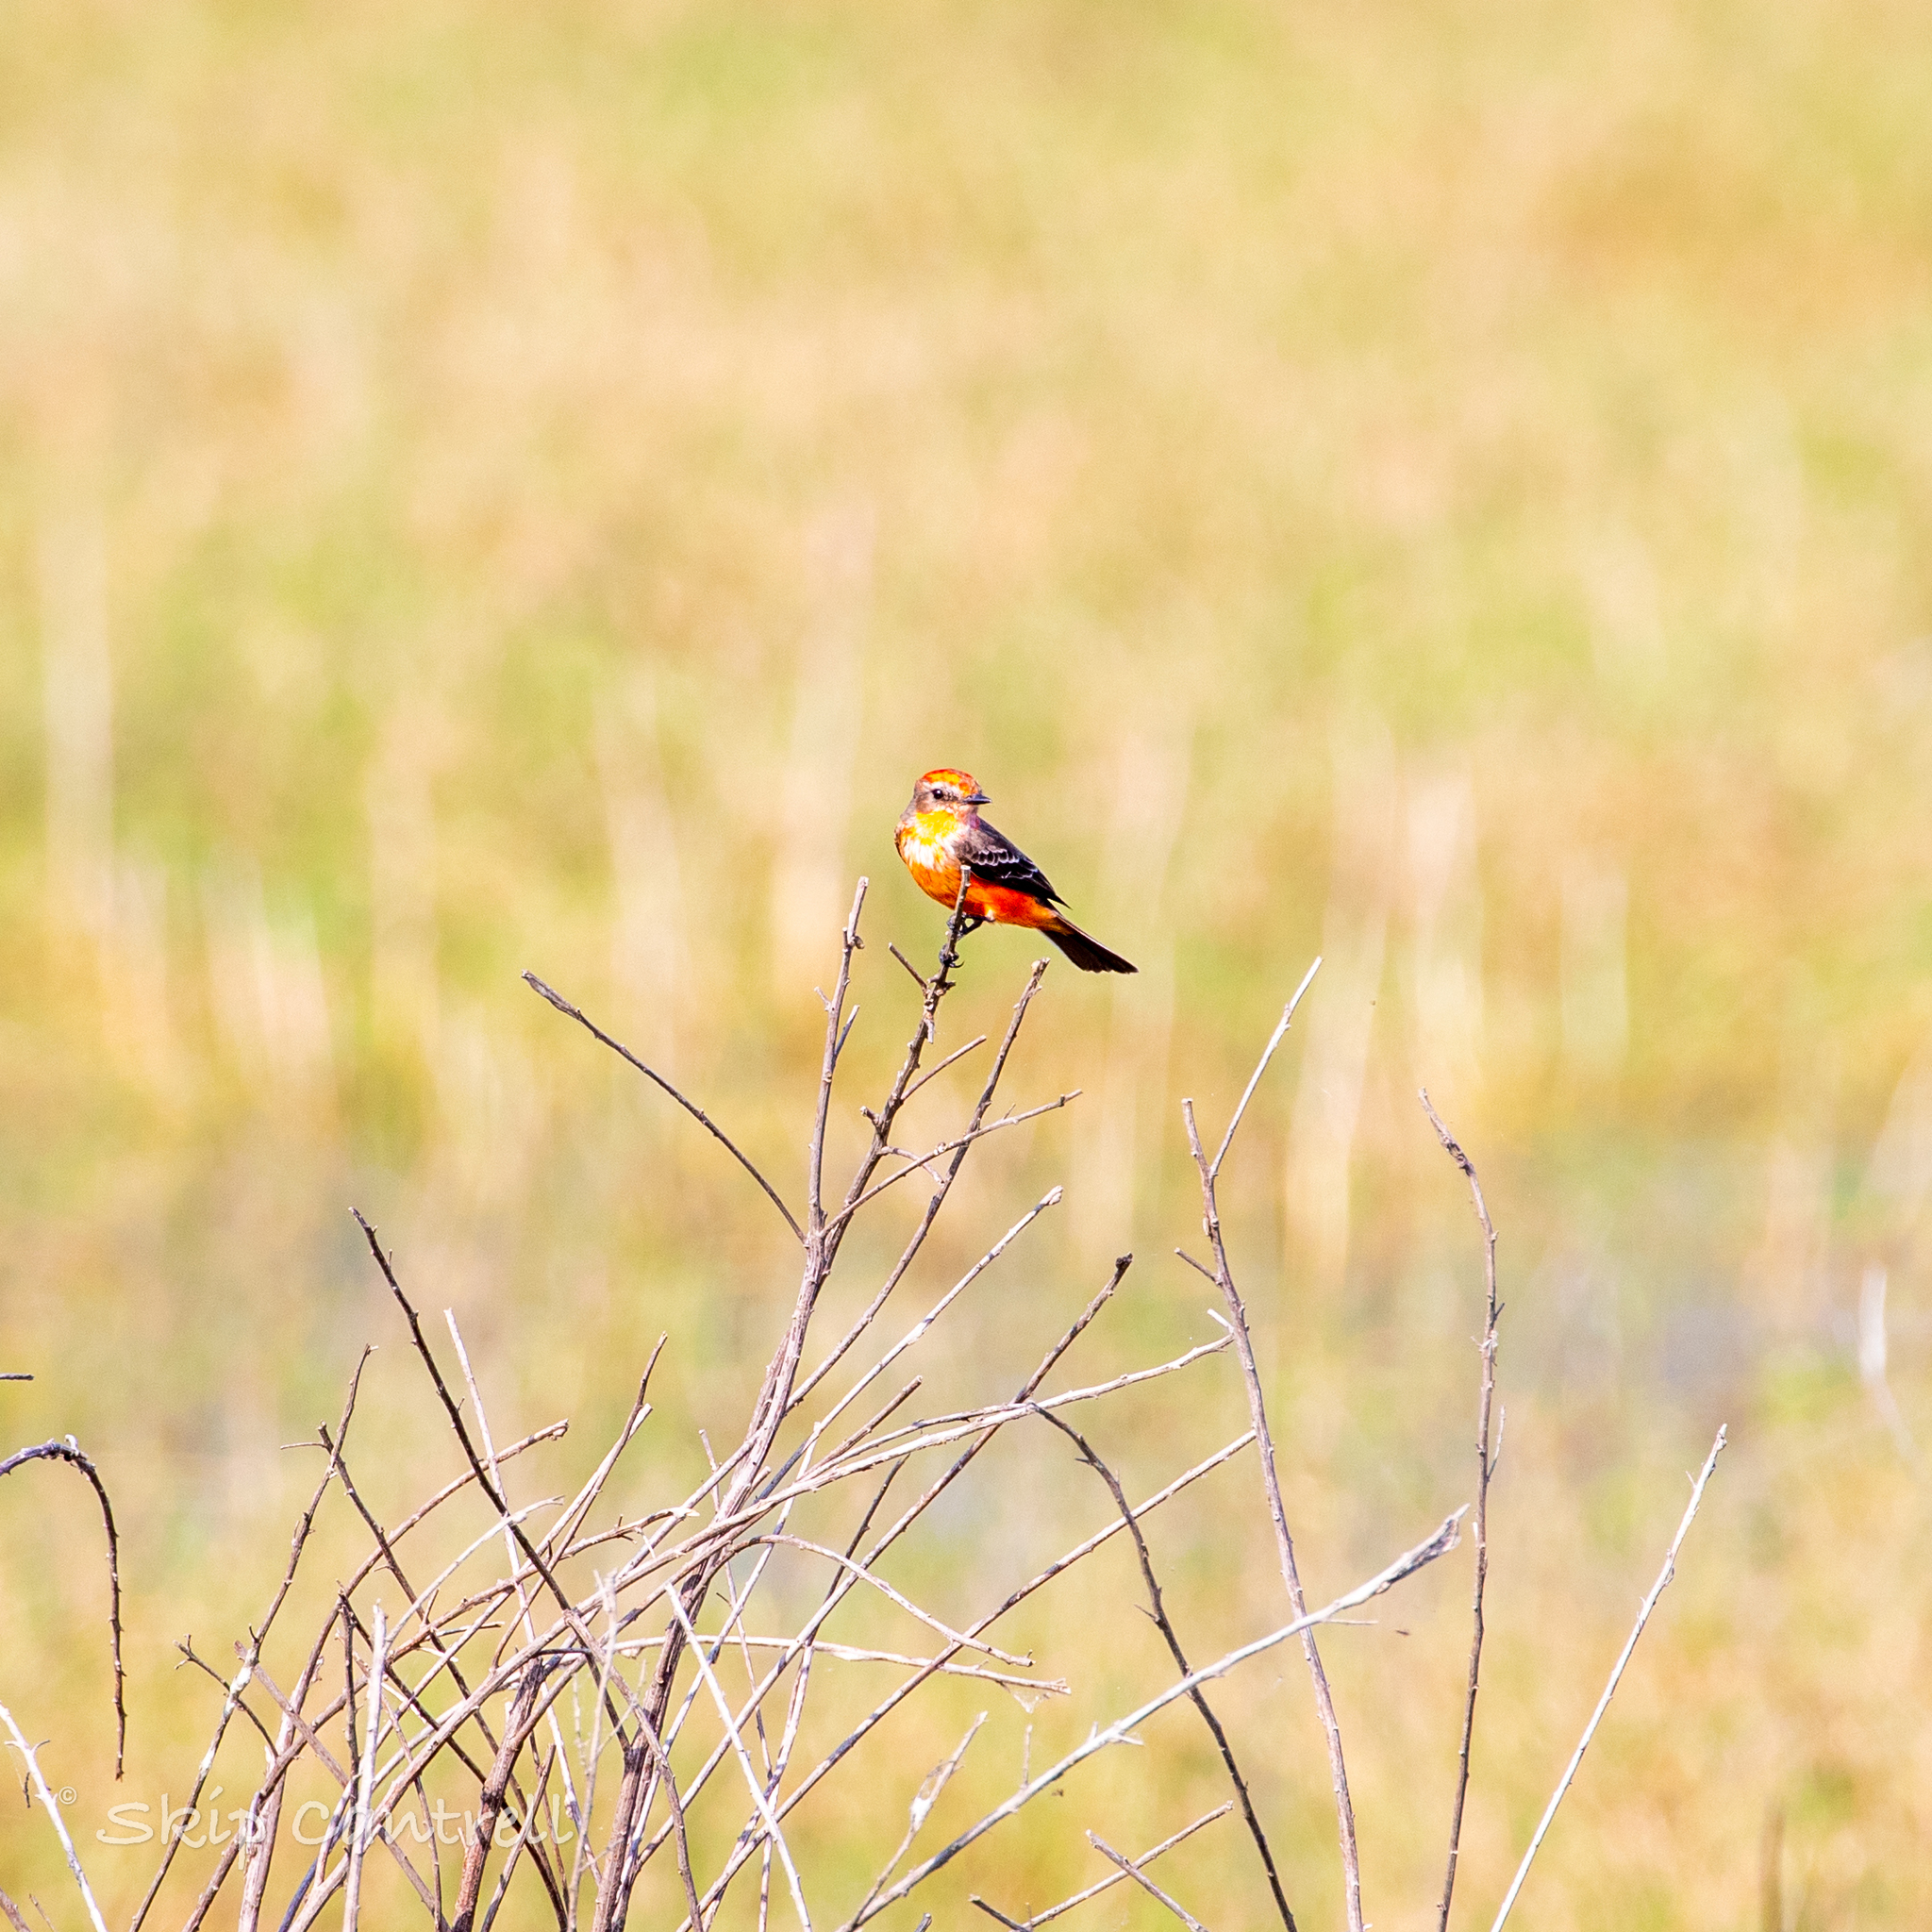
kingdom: Animalia
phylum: Chordata
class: Aves
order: Passeriformes
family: Tyrannidae
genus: Pyrocephalus
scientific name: Pyrocephalus rubinus
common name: Vermilion flycatcher
